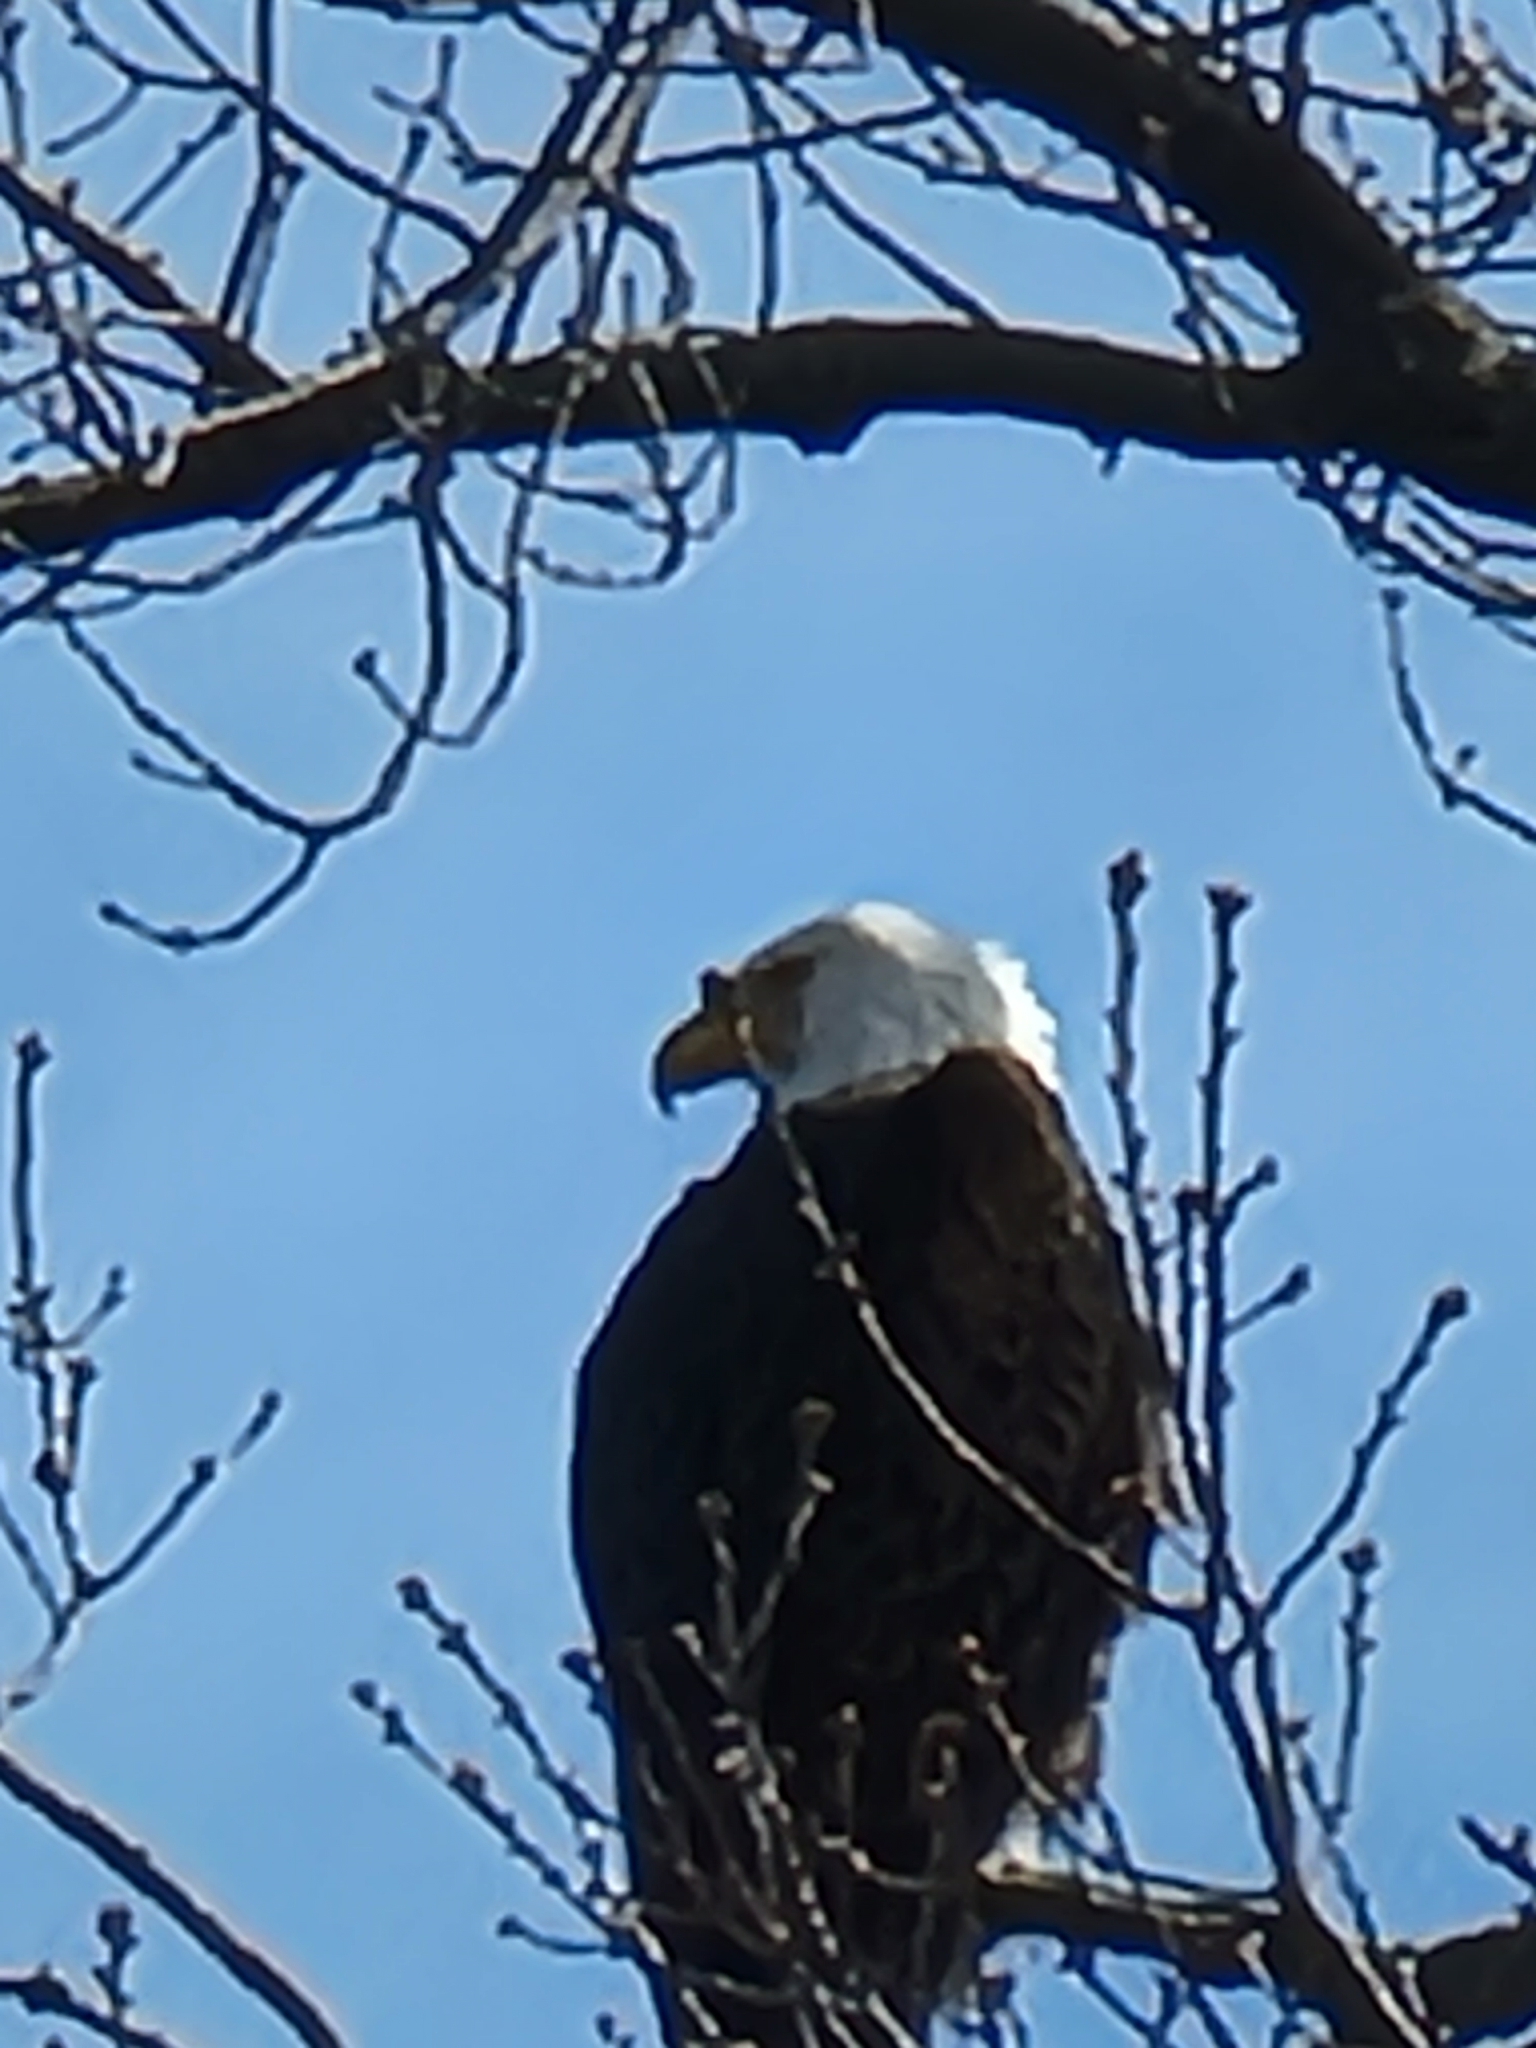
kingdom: Animalia
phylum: Chordata
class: Aves
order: Accipitriformes
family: Accipitridae
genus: Haliaeetus
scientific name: Haliaeetus leucocephalus
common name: Bald eagle
